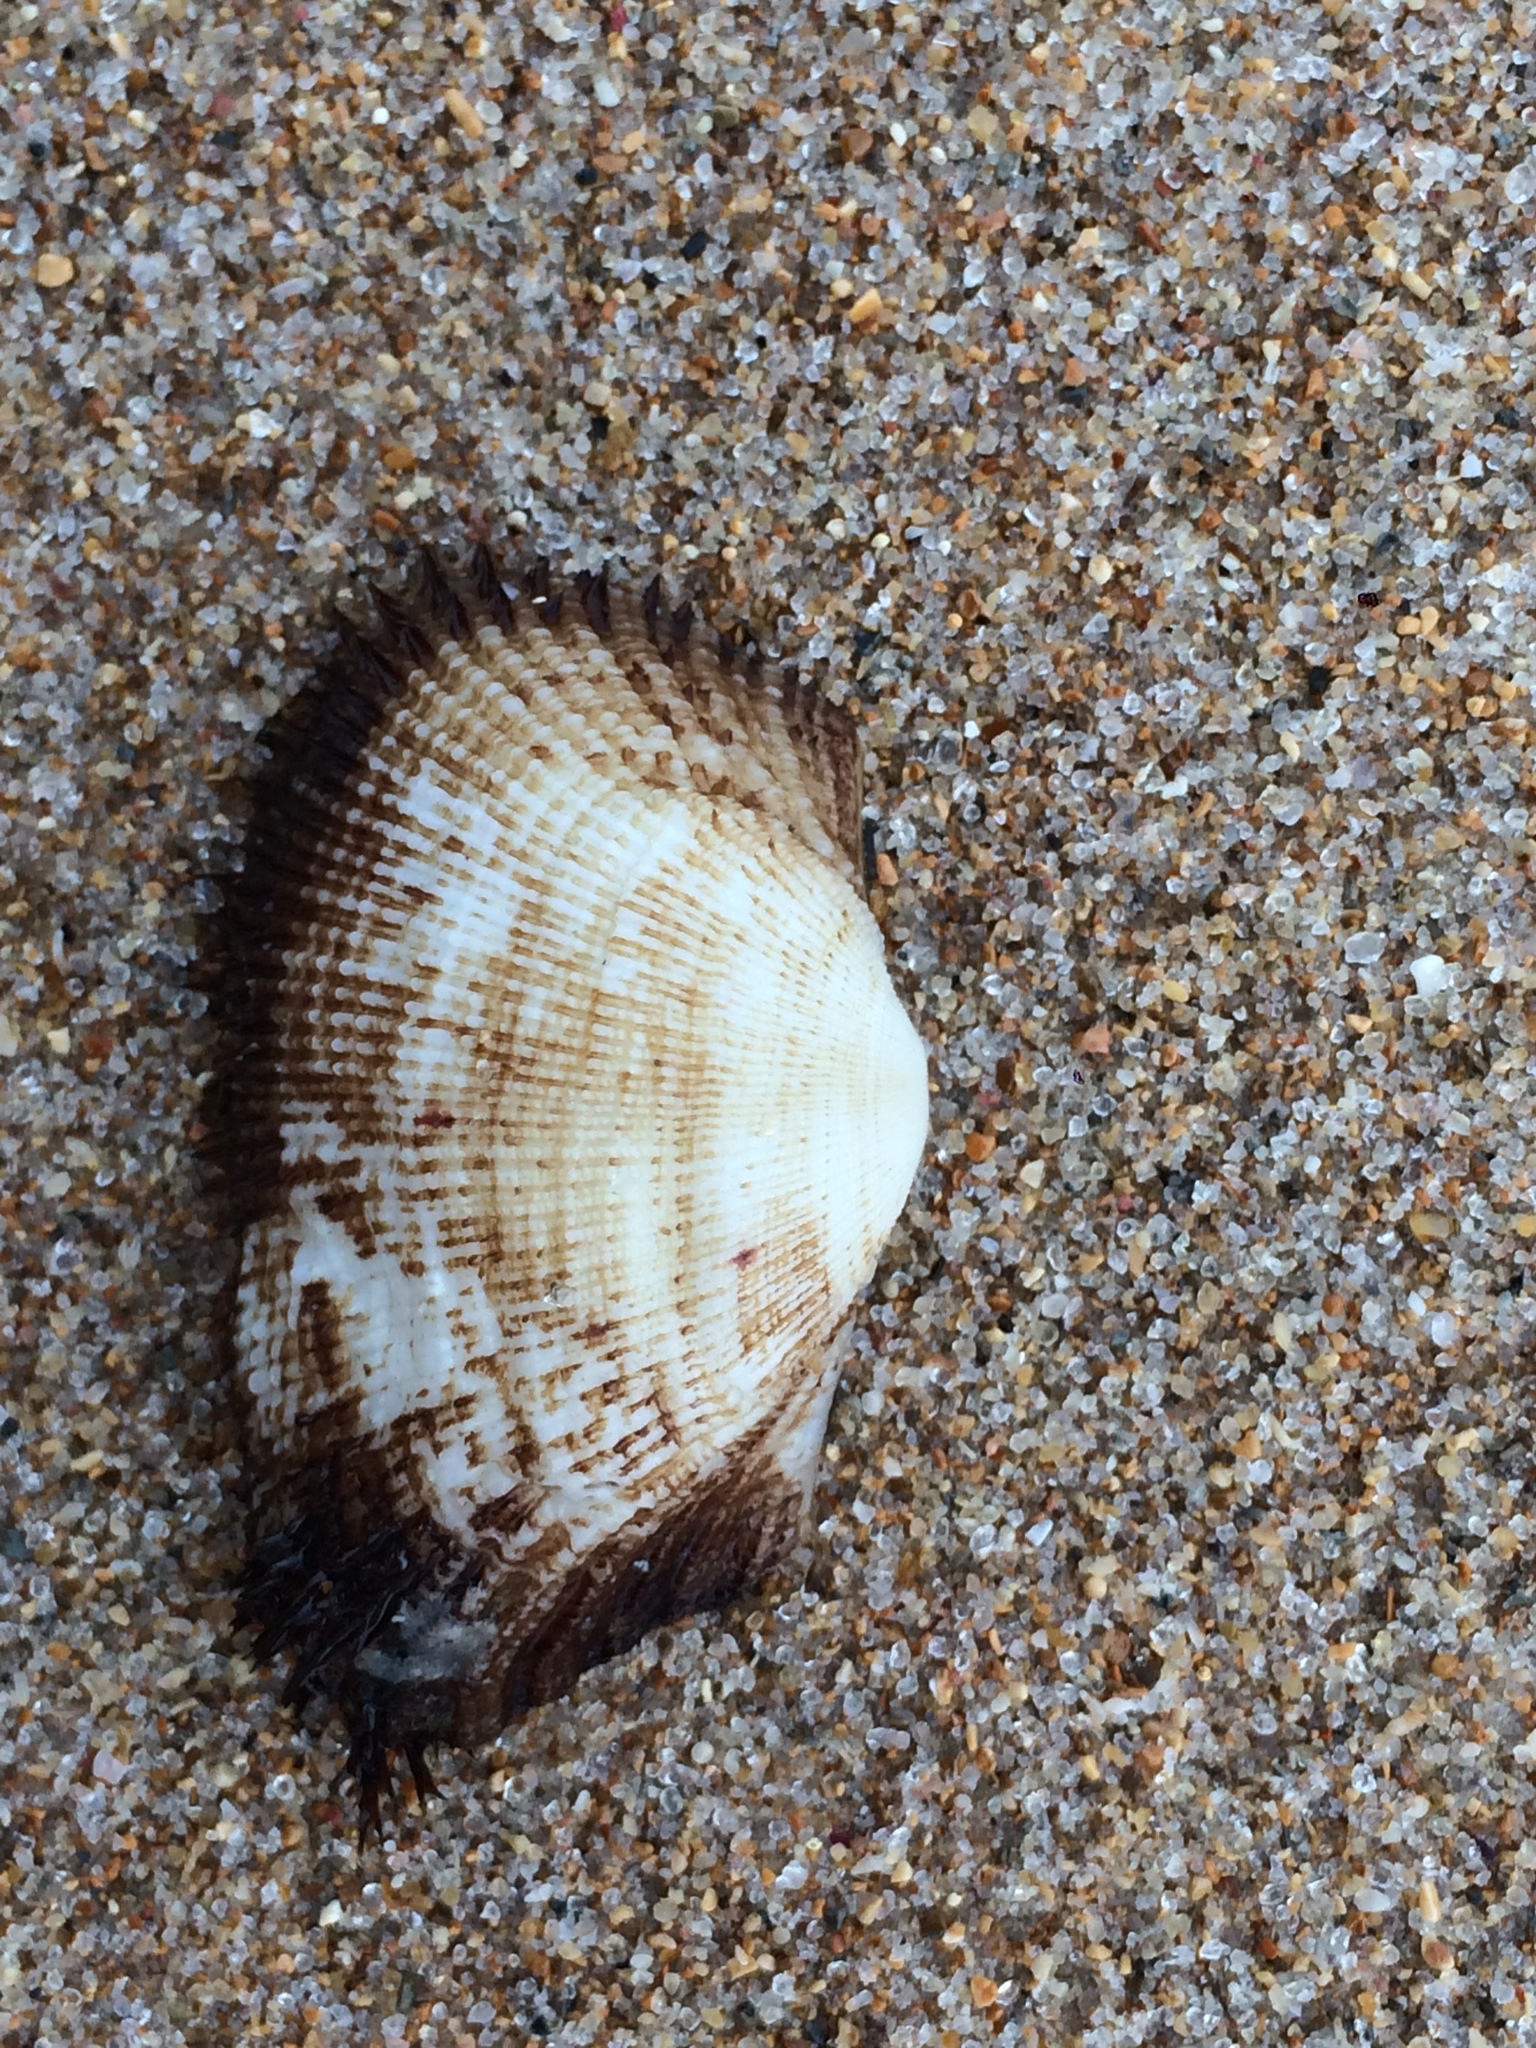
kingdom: Animalia
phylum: Mollusca
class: Bivalvia
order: Arcida
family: Arcidae
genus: Barbatia
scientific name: Barbatia candida
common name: White-beard ark
